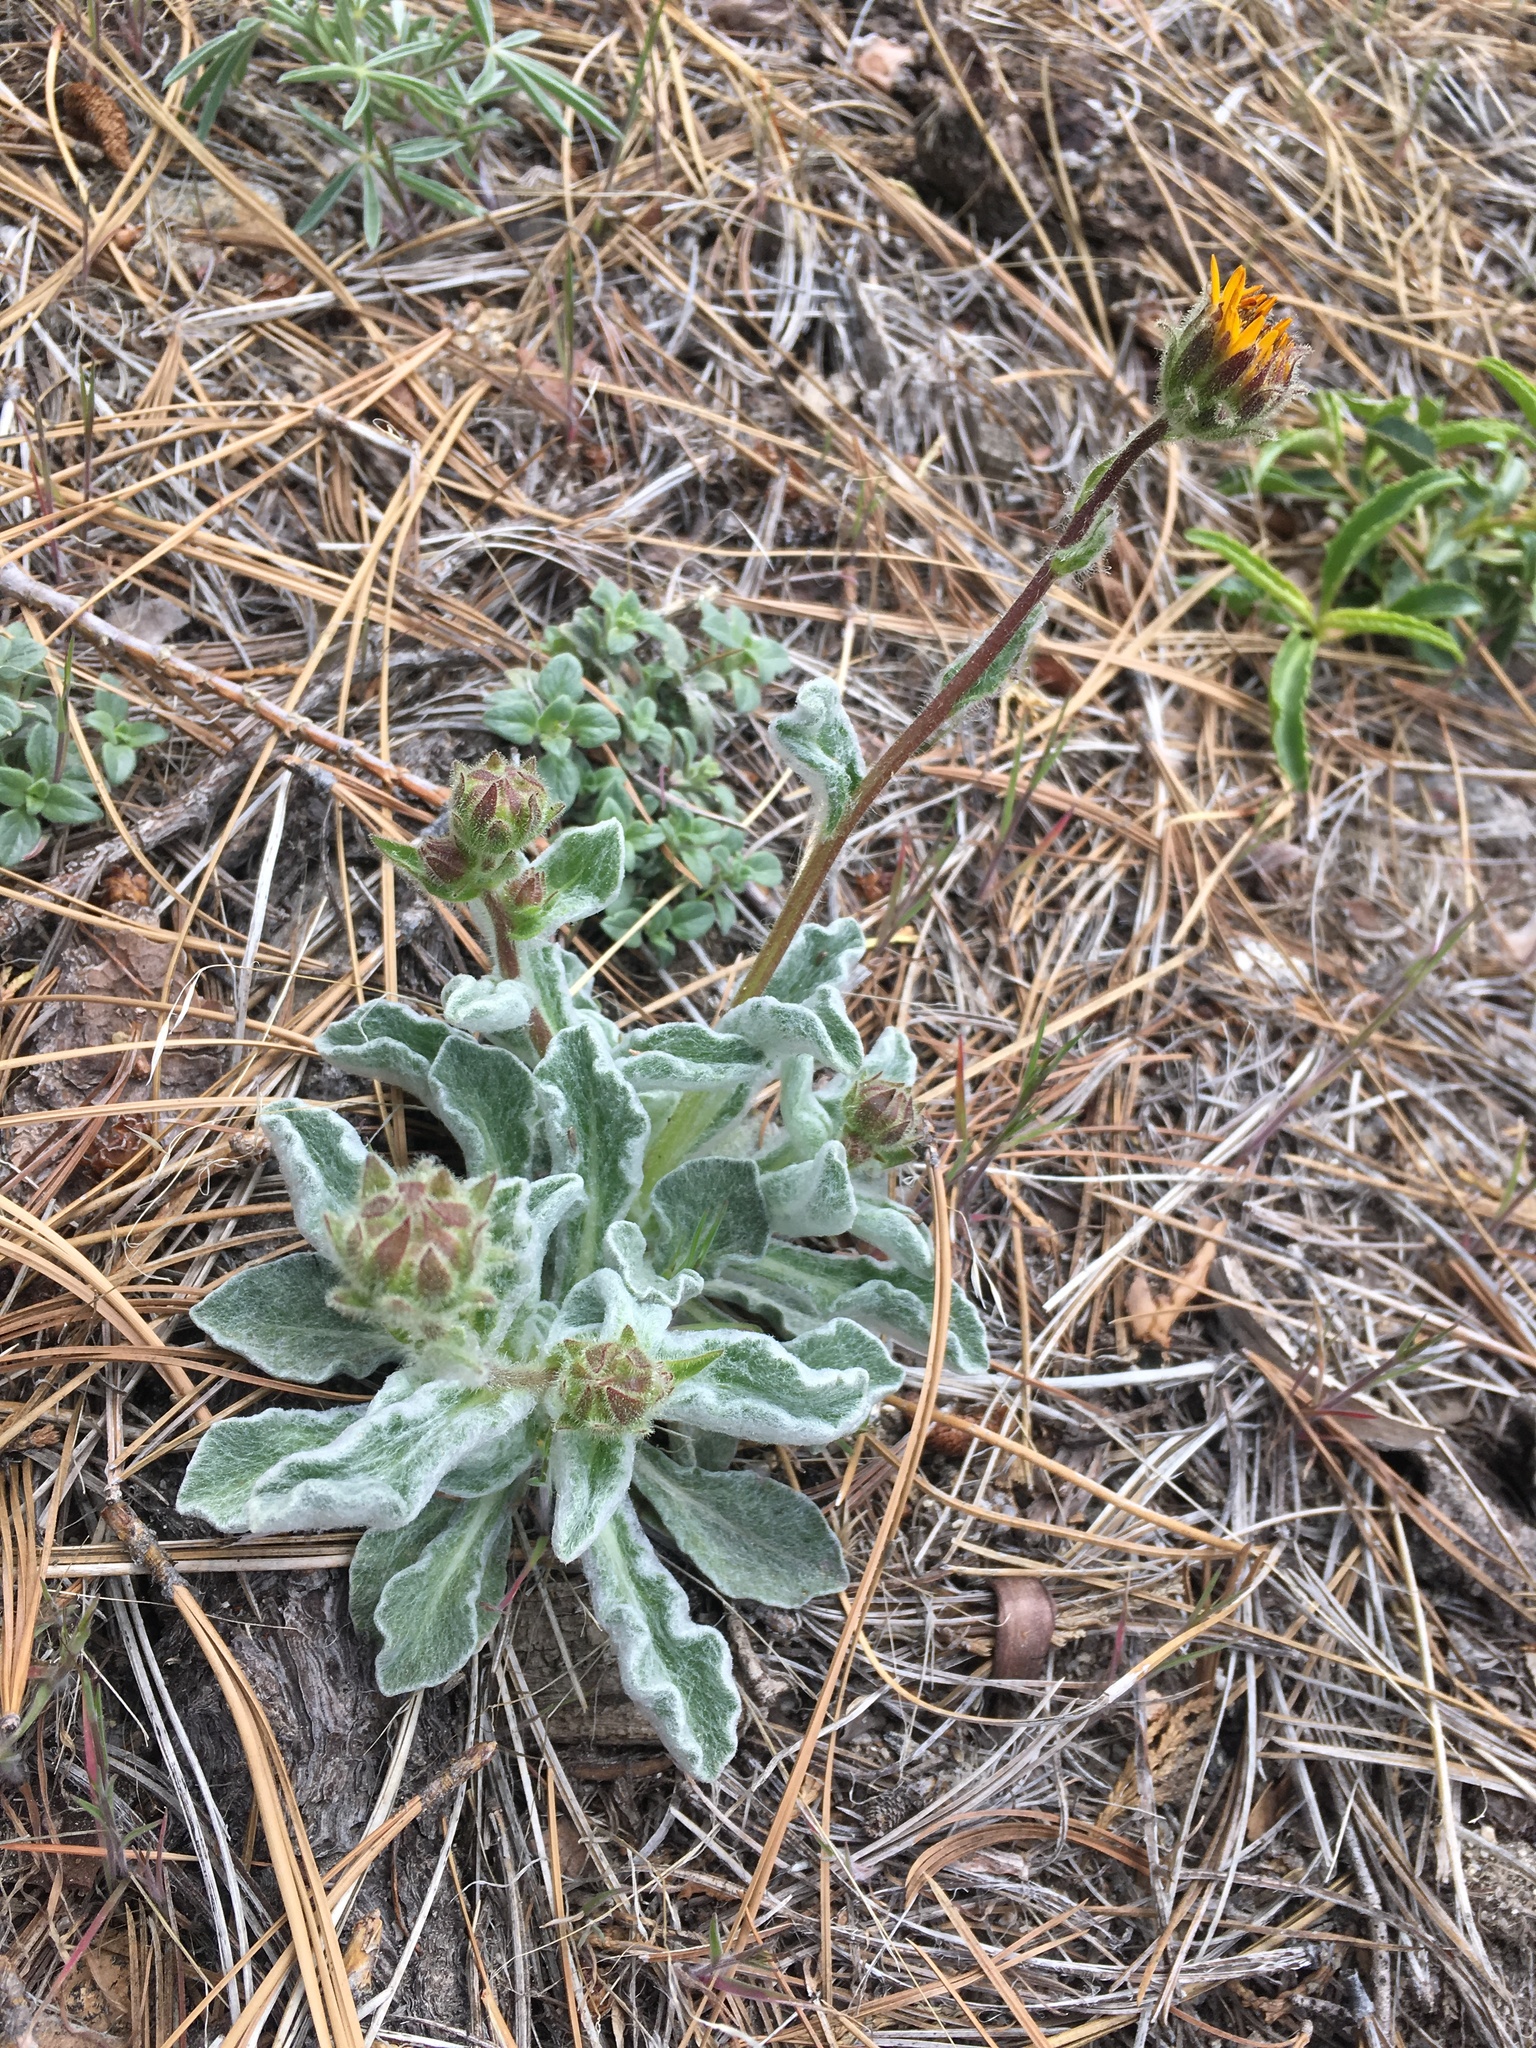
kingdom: Plantae
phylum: Tracheophyta
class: Magnoliopsida
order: Asterales
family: Asteraceae
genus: Hulsea
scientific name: Hulsea vestita
